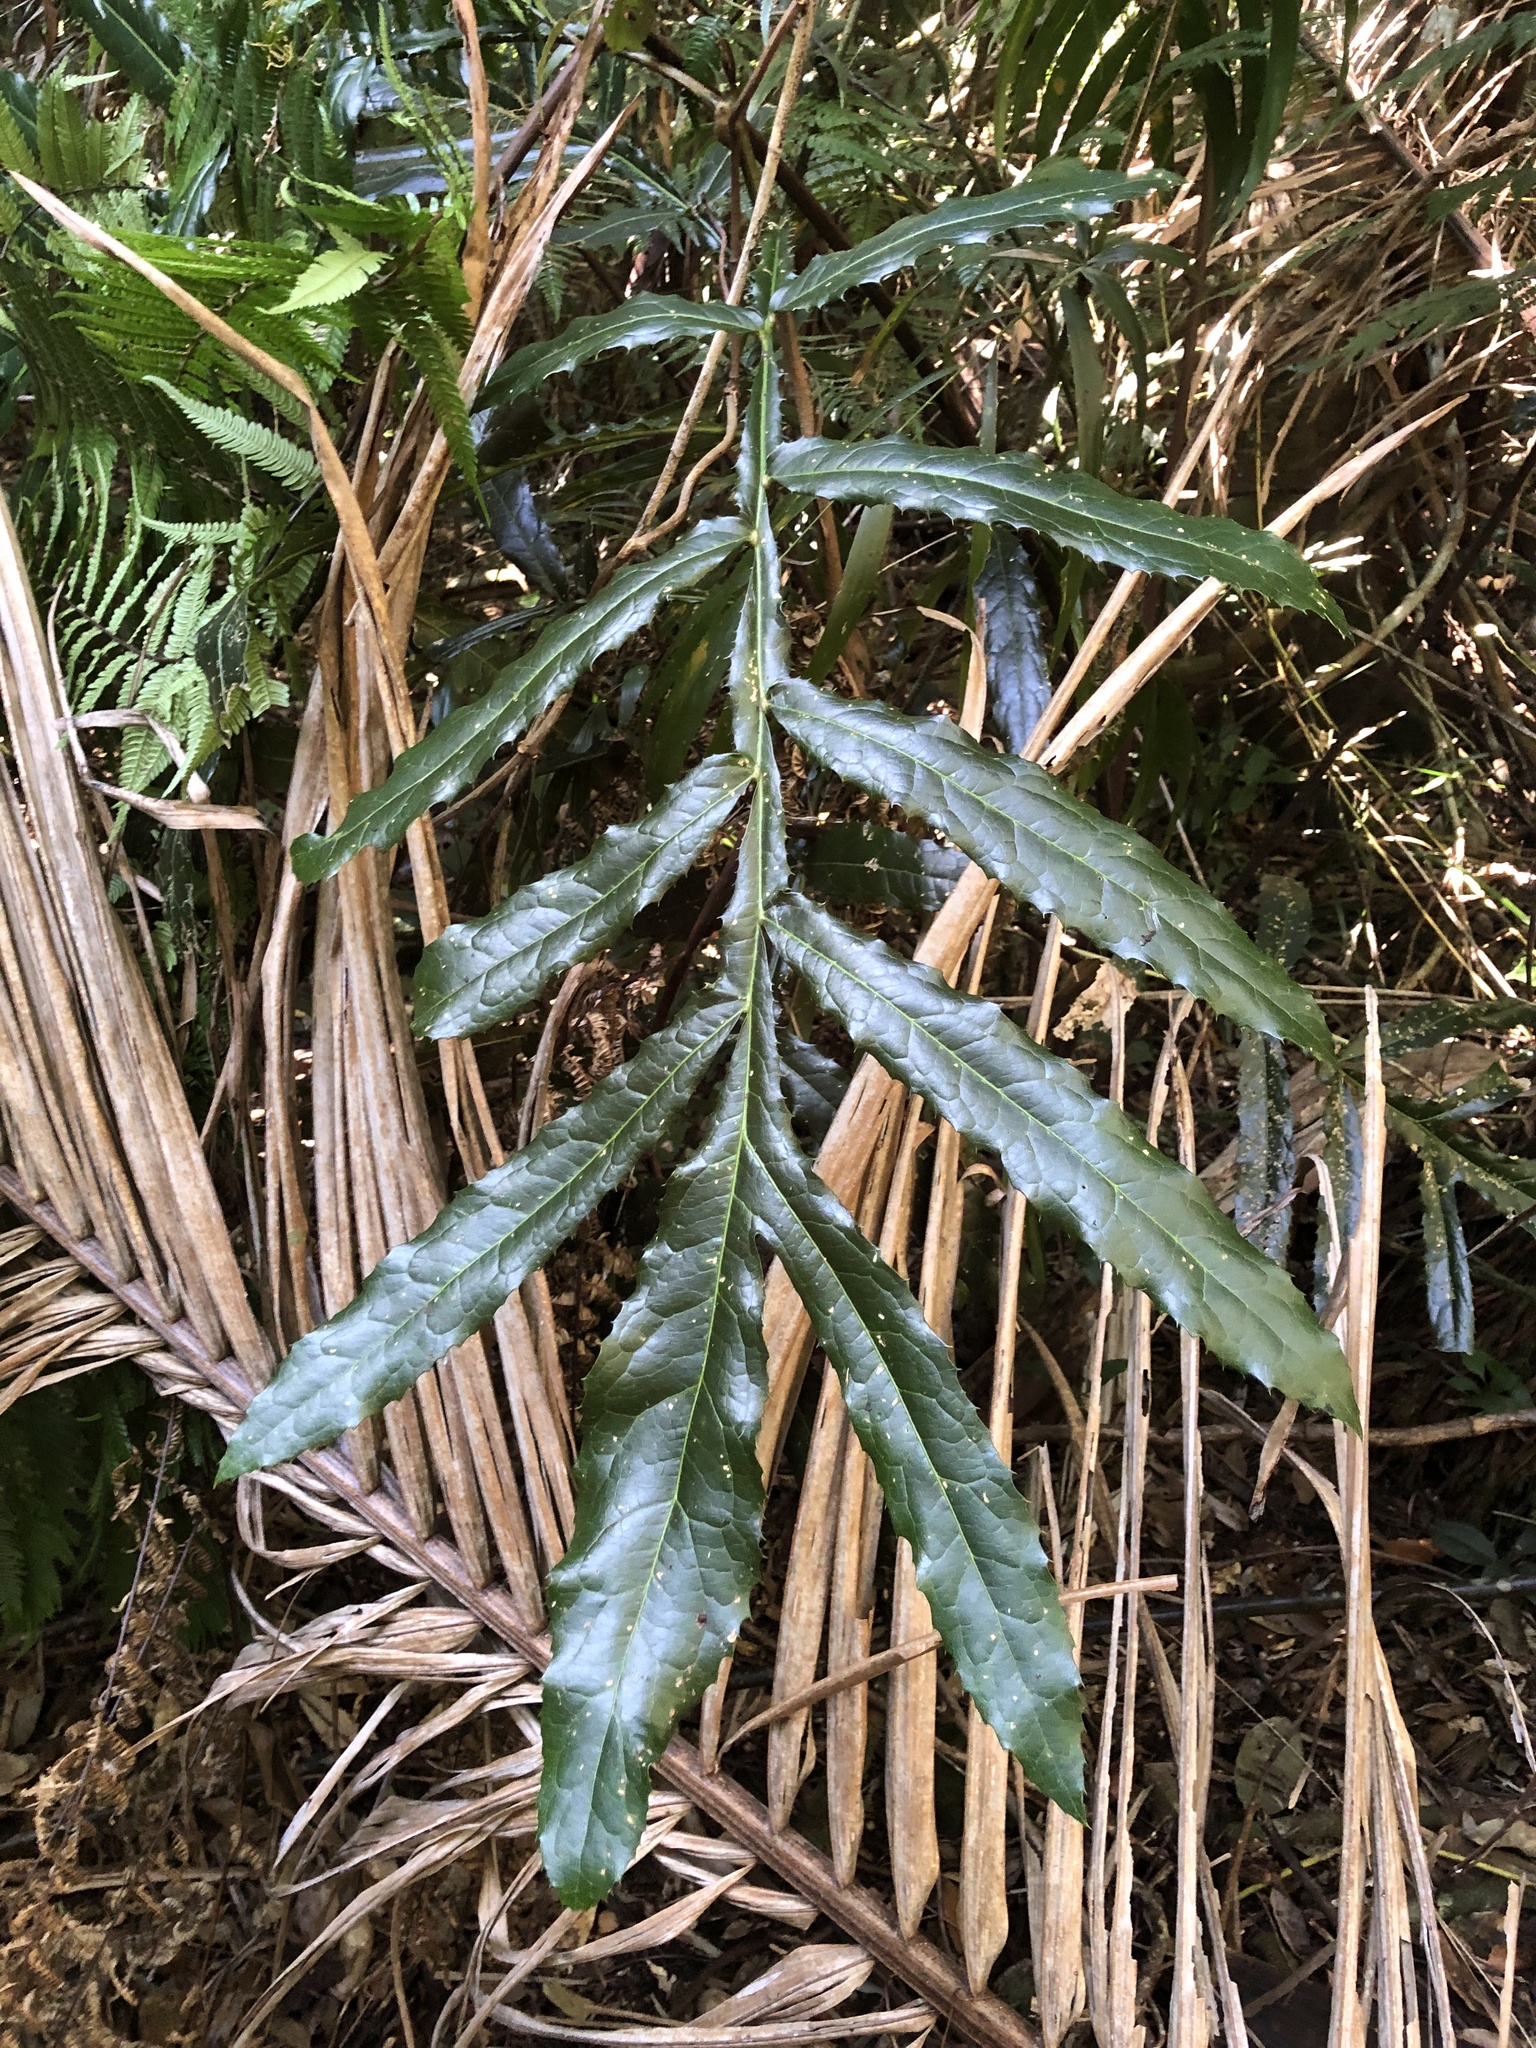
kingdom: Plantae
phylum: Tracheophyta
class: Magnoliopsida
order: Proteales
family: Proteaceae
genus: Hicksbeachia
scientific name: Hicksbeachia pinnatifolia
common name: Beefnut
